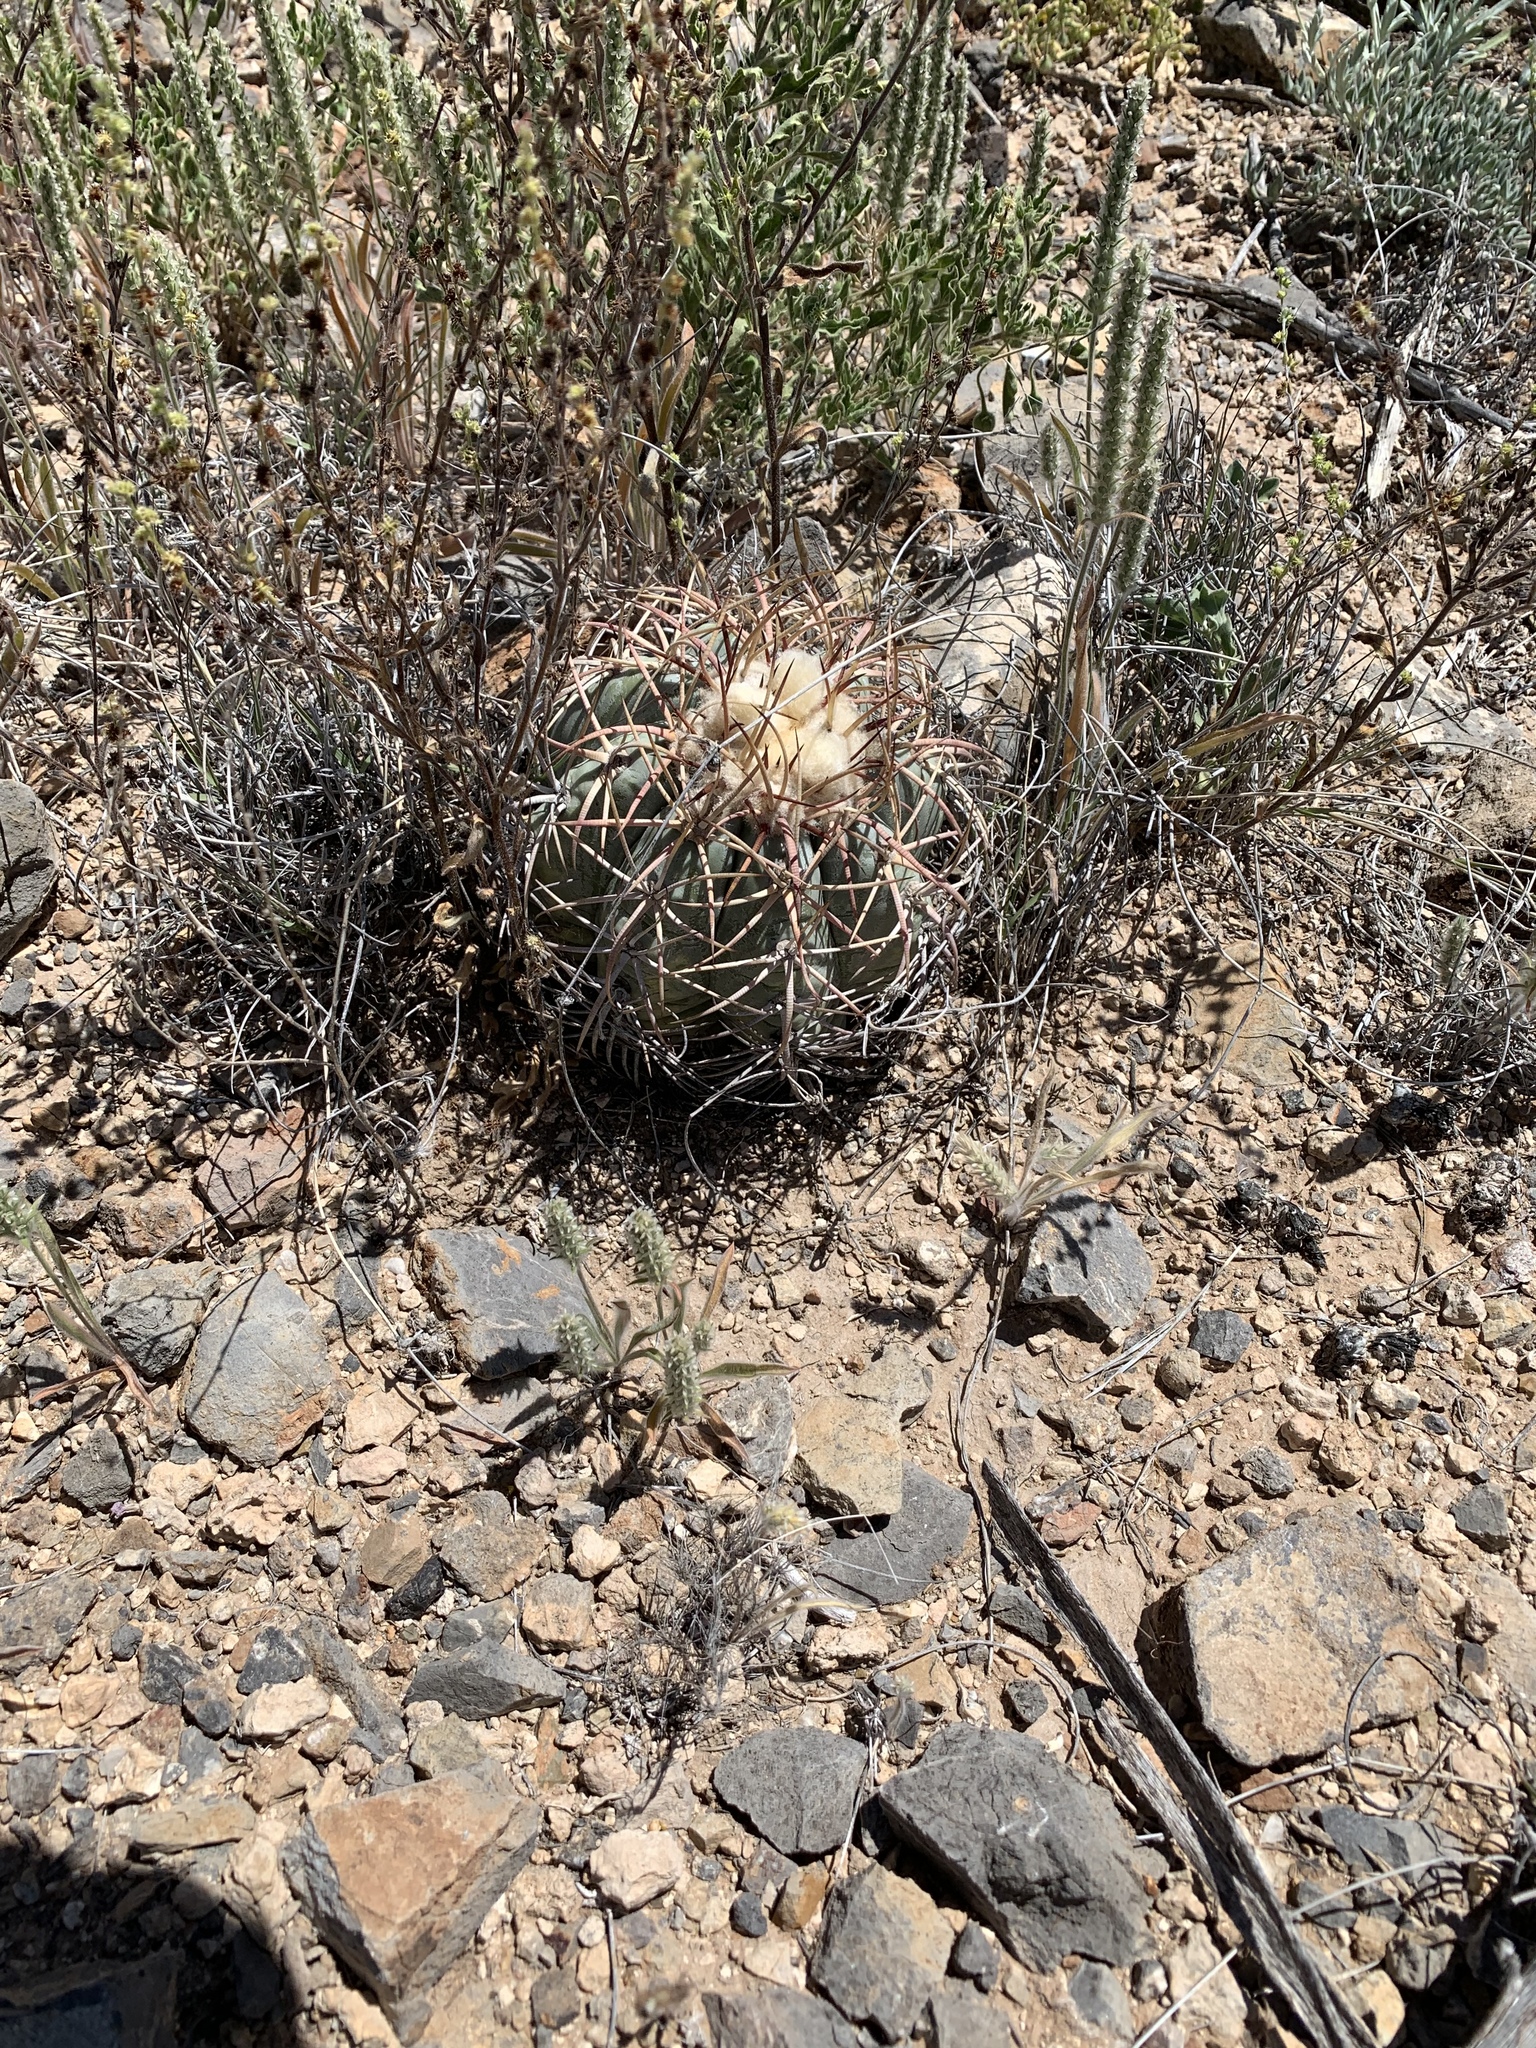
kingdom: Plantae
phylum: Tracheophyta
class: Magnoliopsida
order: Caryophyllales
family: Cactaceae
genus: Echinocactus
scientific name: Echinocactus horizonthalonius
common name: Devilshead
